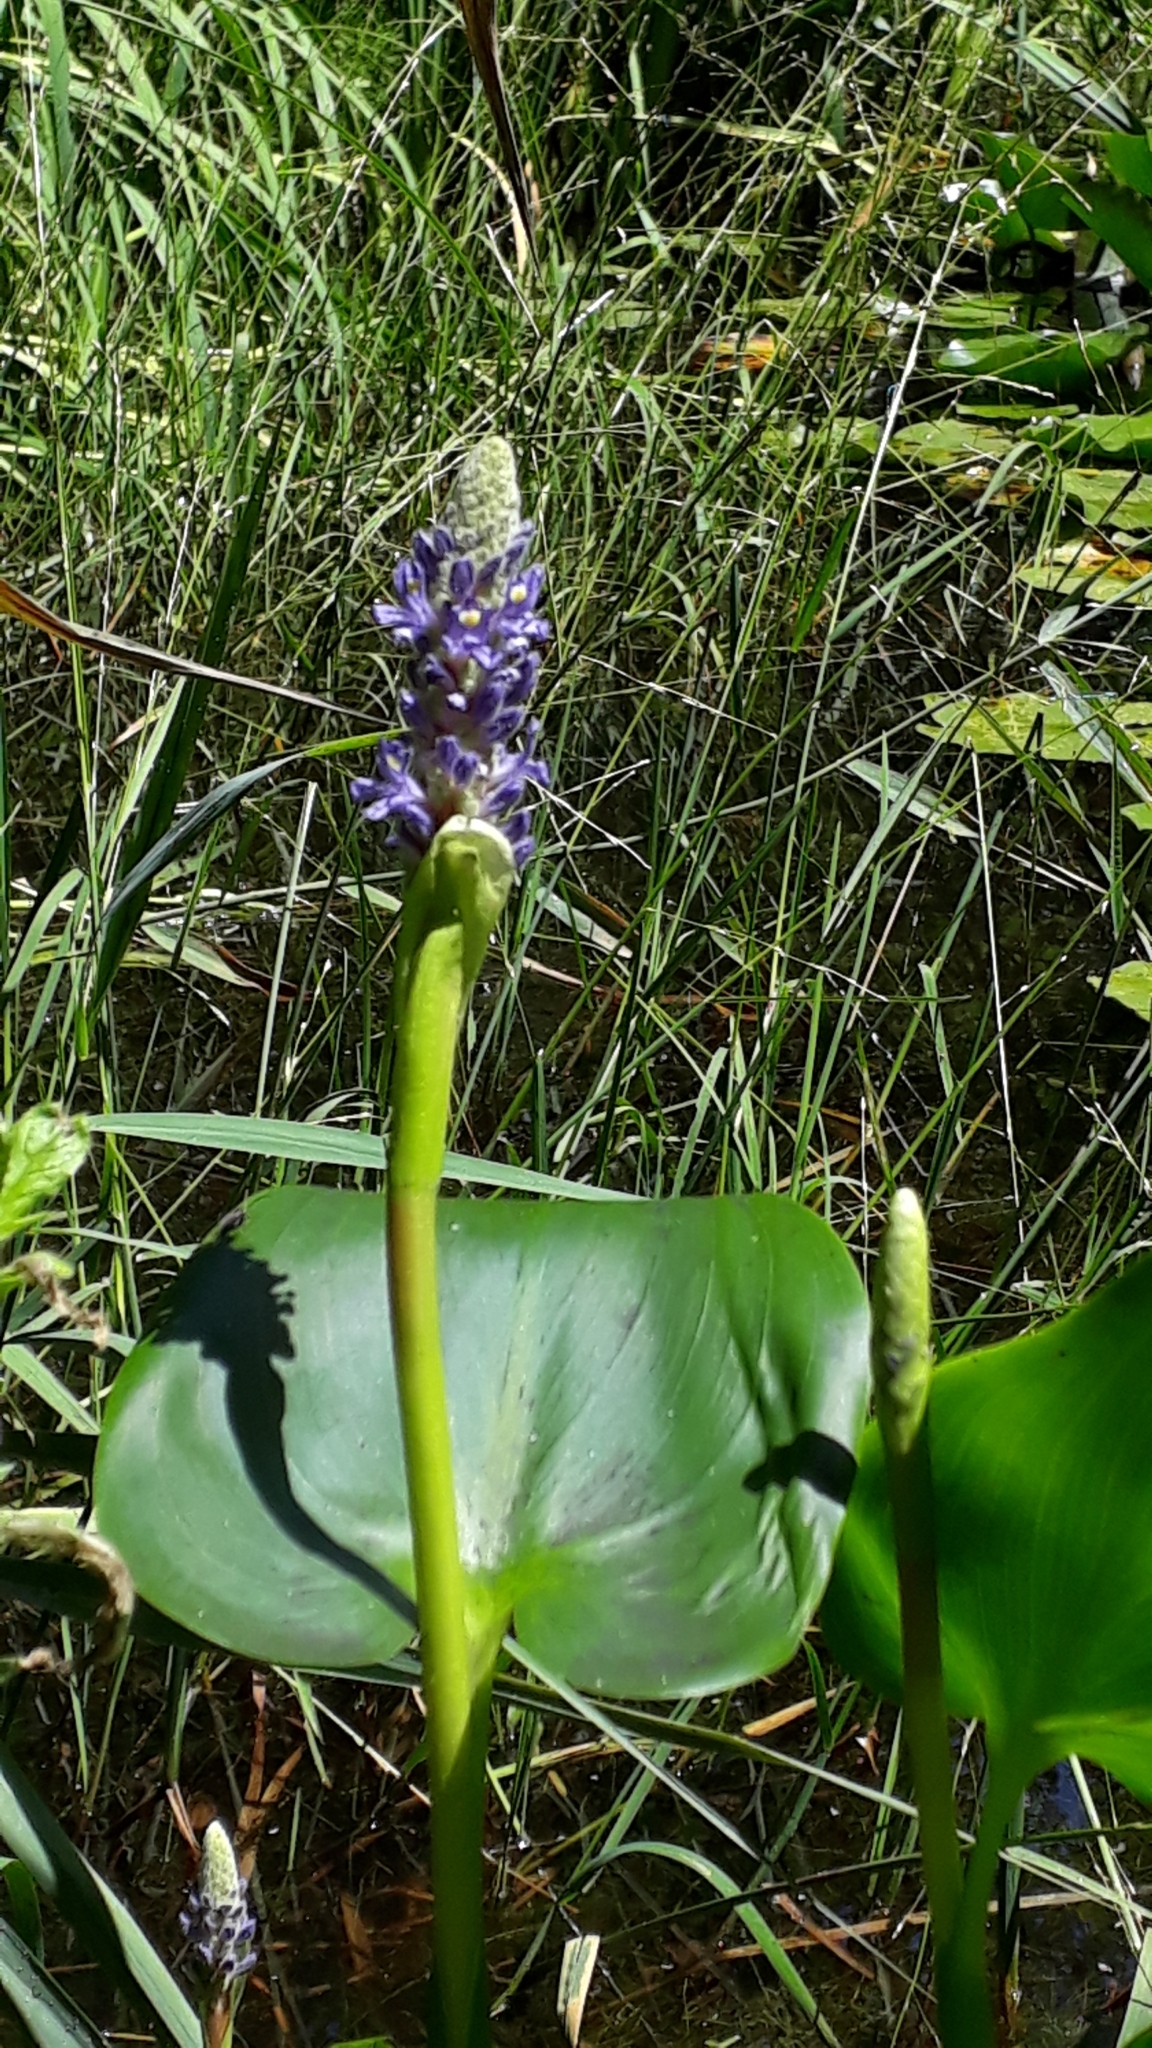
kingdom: Plantae
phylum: Tracheophyta
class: Liliopsida
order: Commelinales
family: Pontederiaceae
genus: Pontederia
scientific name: Pontederia cordata
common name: Pickerelweed
